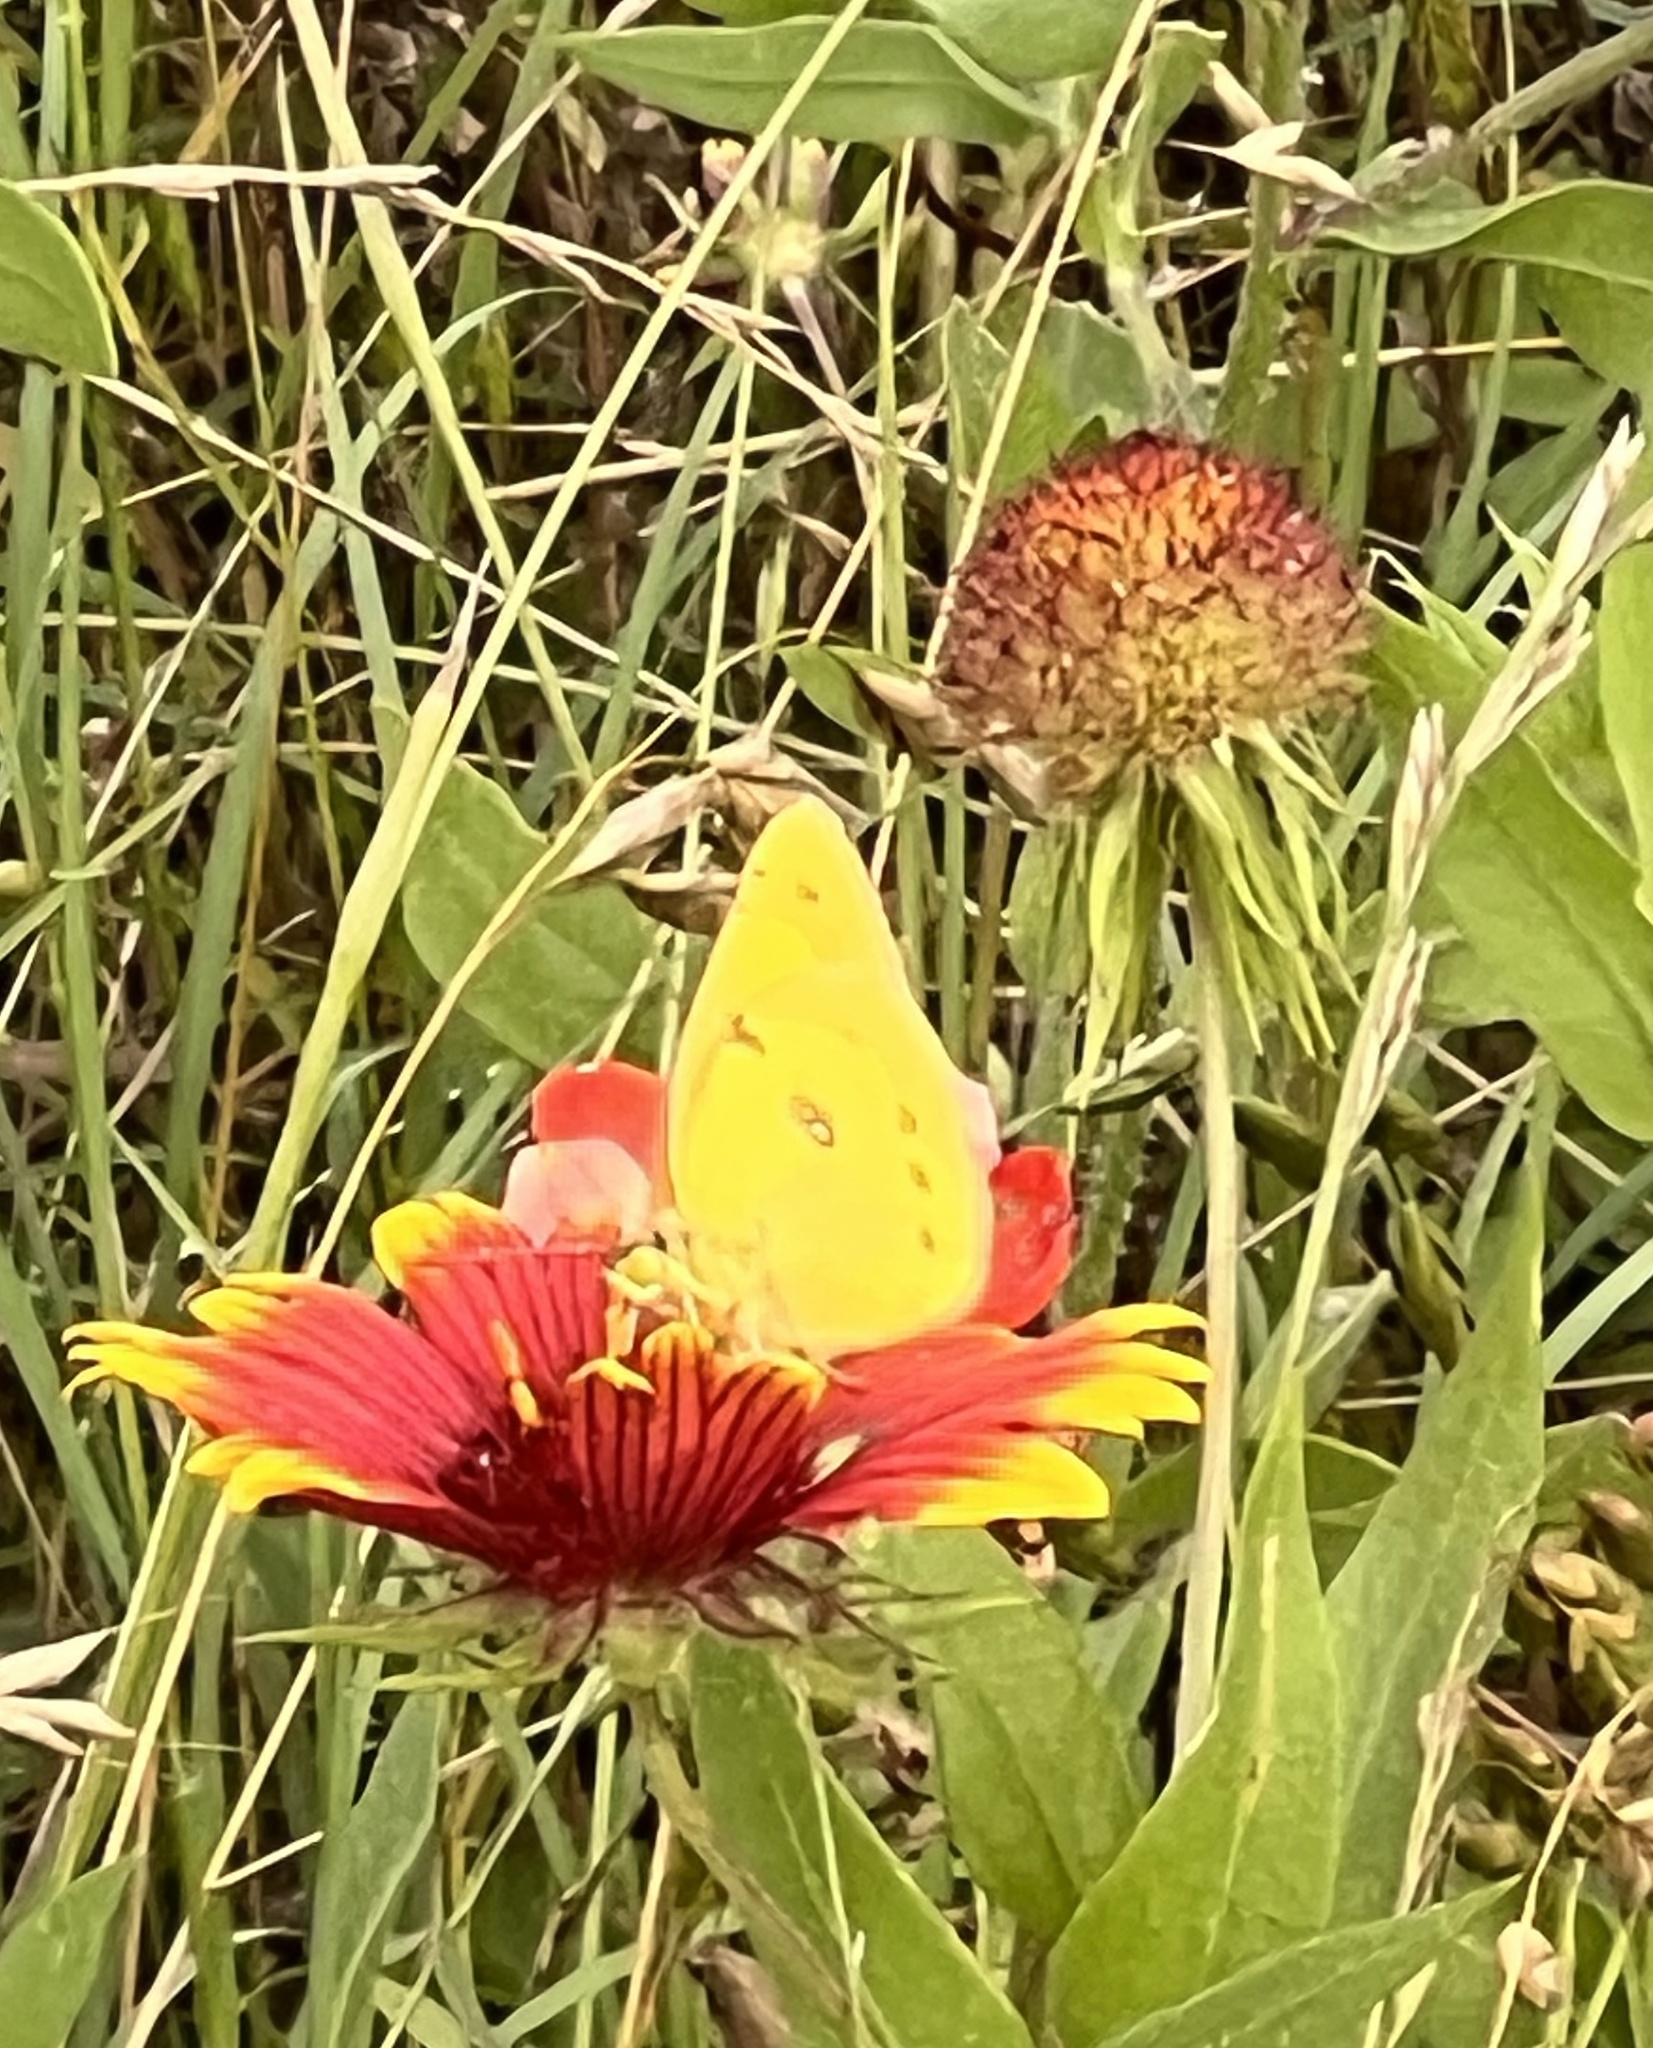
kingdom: Animalia
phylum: Arthropoda
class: Insecta
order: Lepidoptera
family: Pieridae
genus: Colias
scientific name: Colias eurytheme
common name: Alfalfa butterfly
